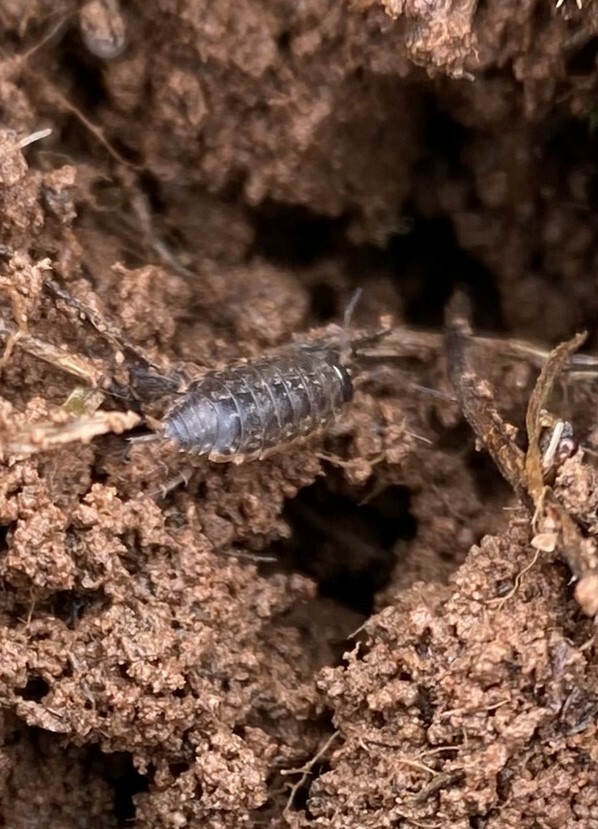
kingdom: Animalia
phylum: Arthropoda
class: Malacostraca
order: Isopoda
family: Philosciidae
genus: Philoscia
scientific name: Philoscia muscorum
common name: Common striped woodlouse
